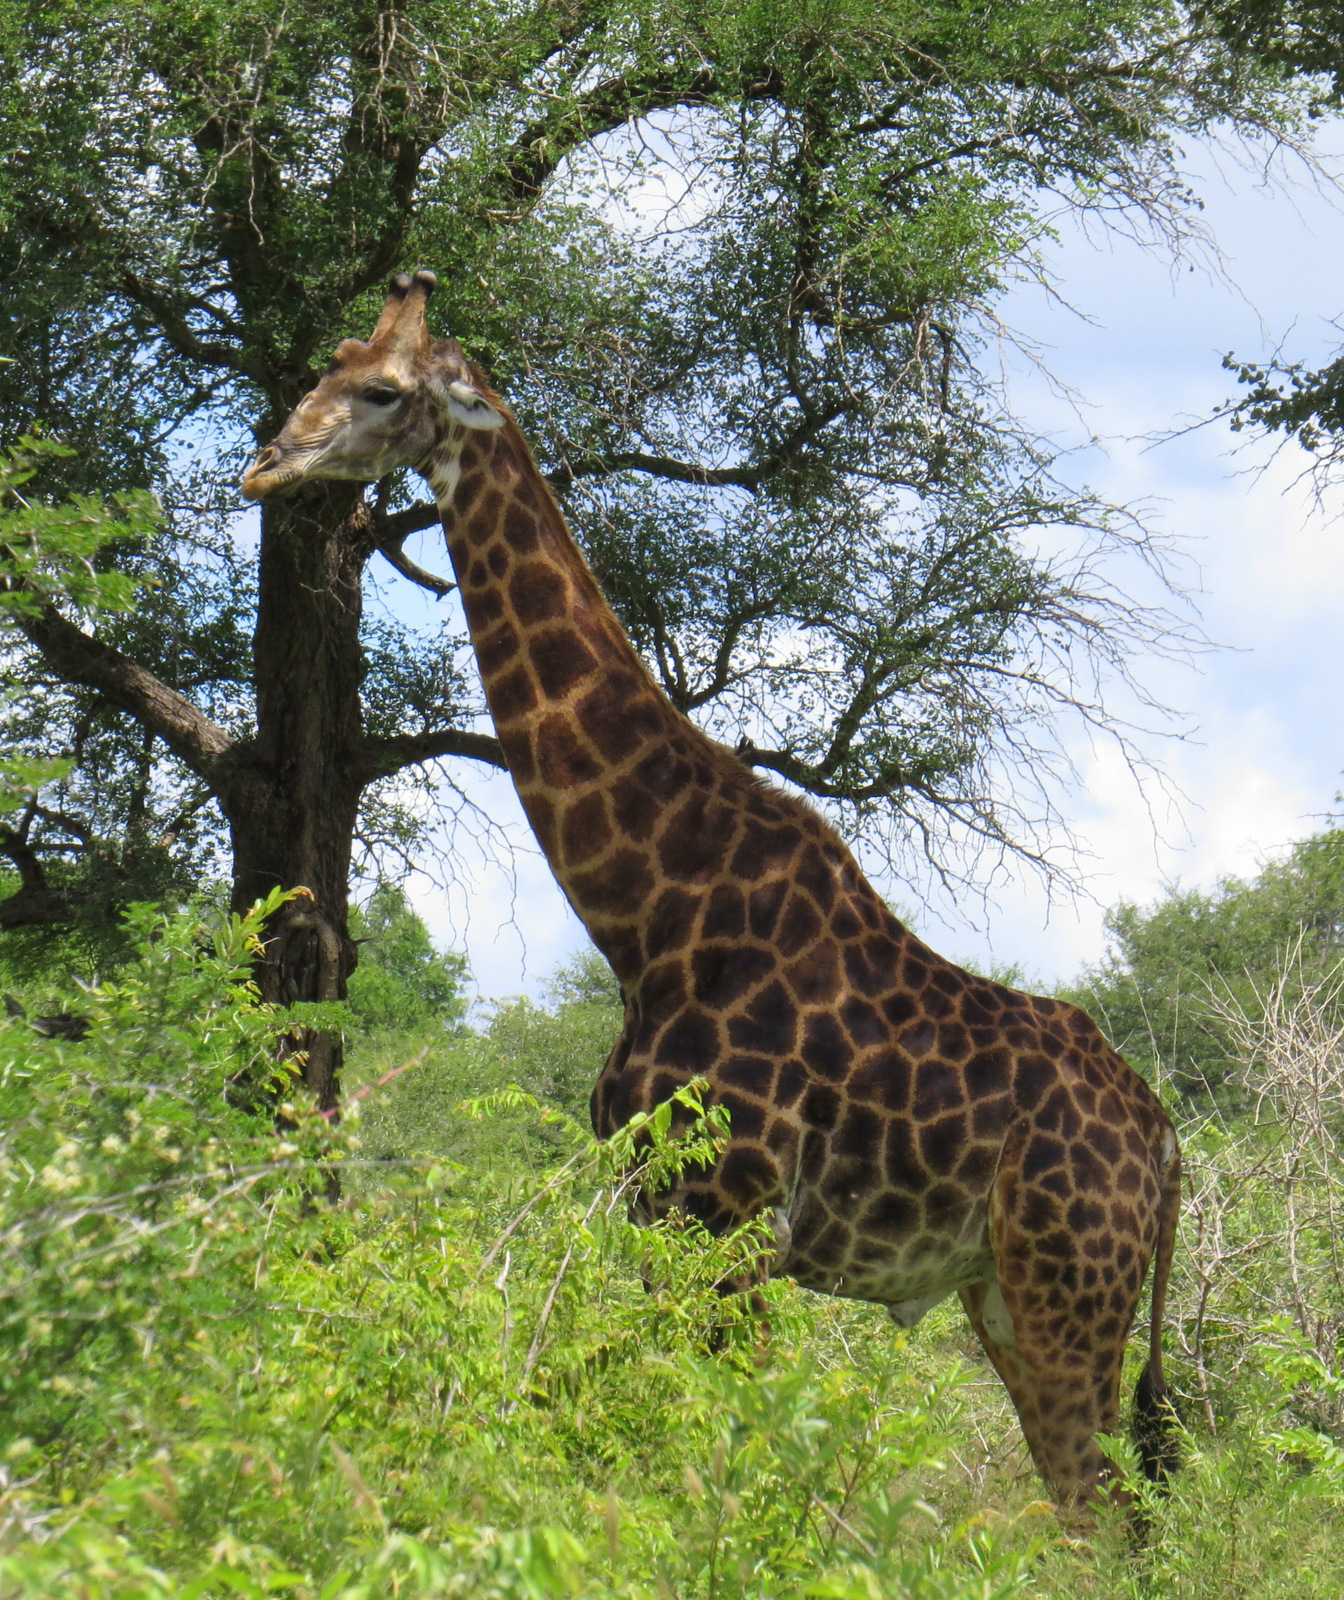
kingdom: Animalia
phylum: Chordata
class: Mammalia
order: Artiodactyla
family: Giraffidae
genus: Giraffa
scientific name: Giraffa giraffa
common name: Southern giraffe
